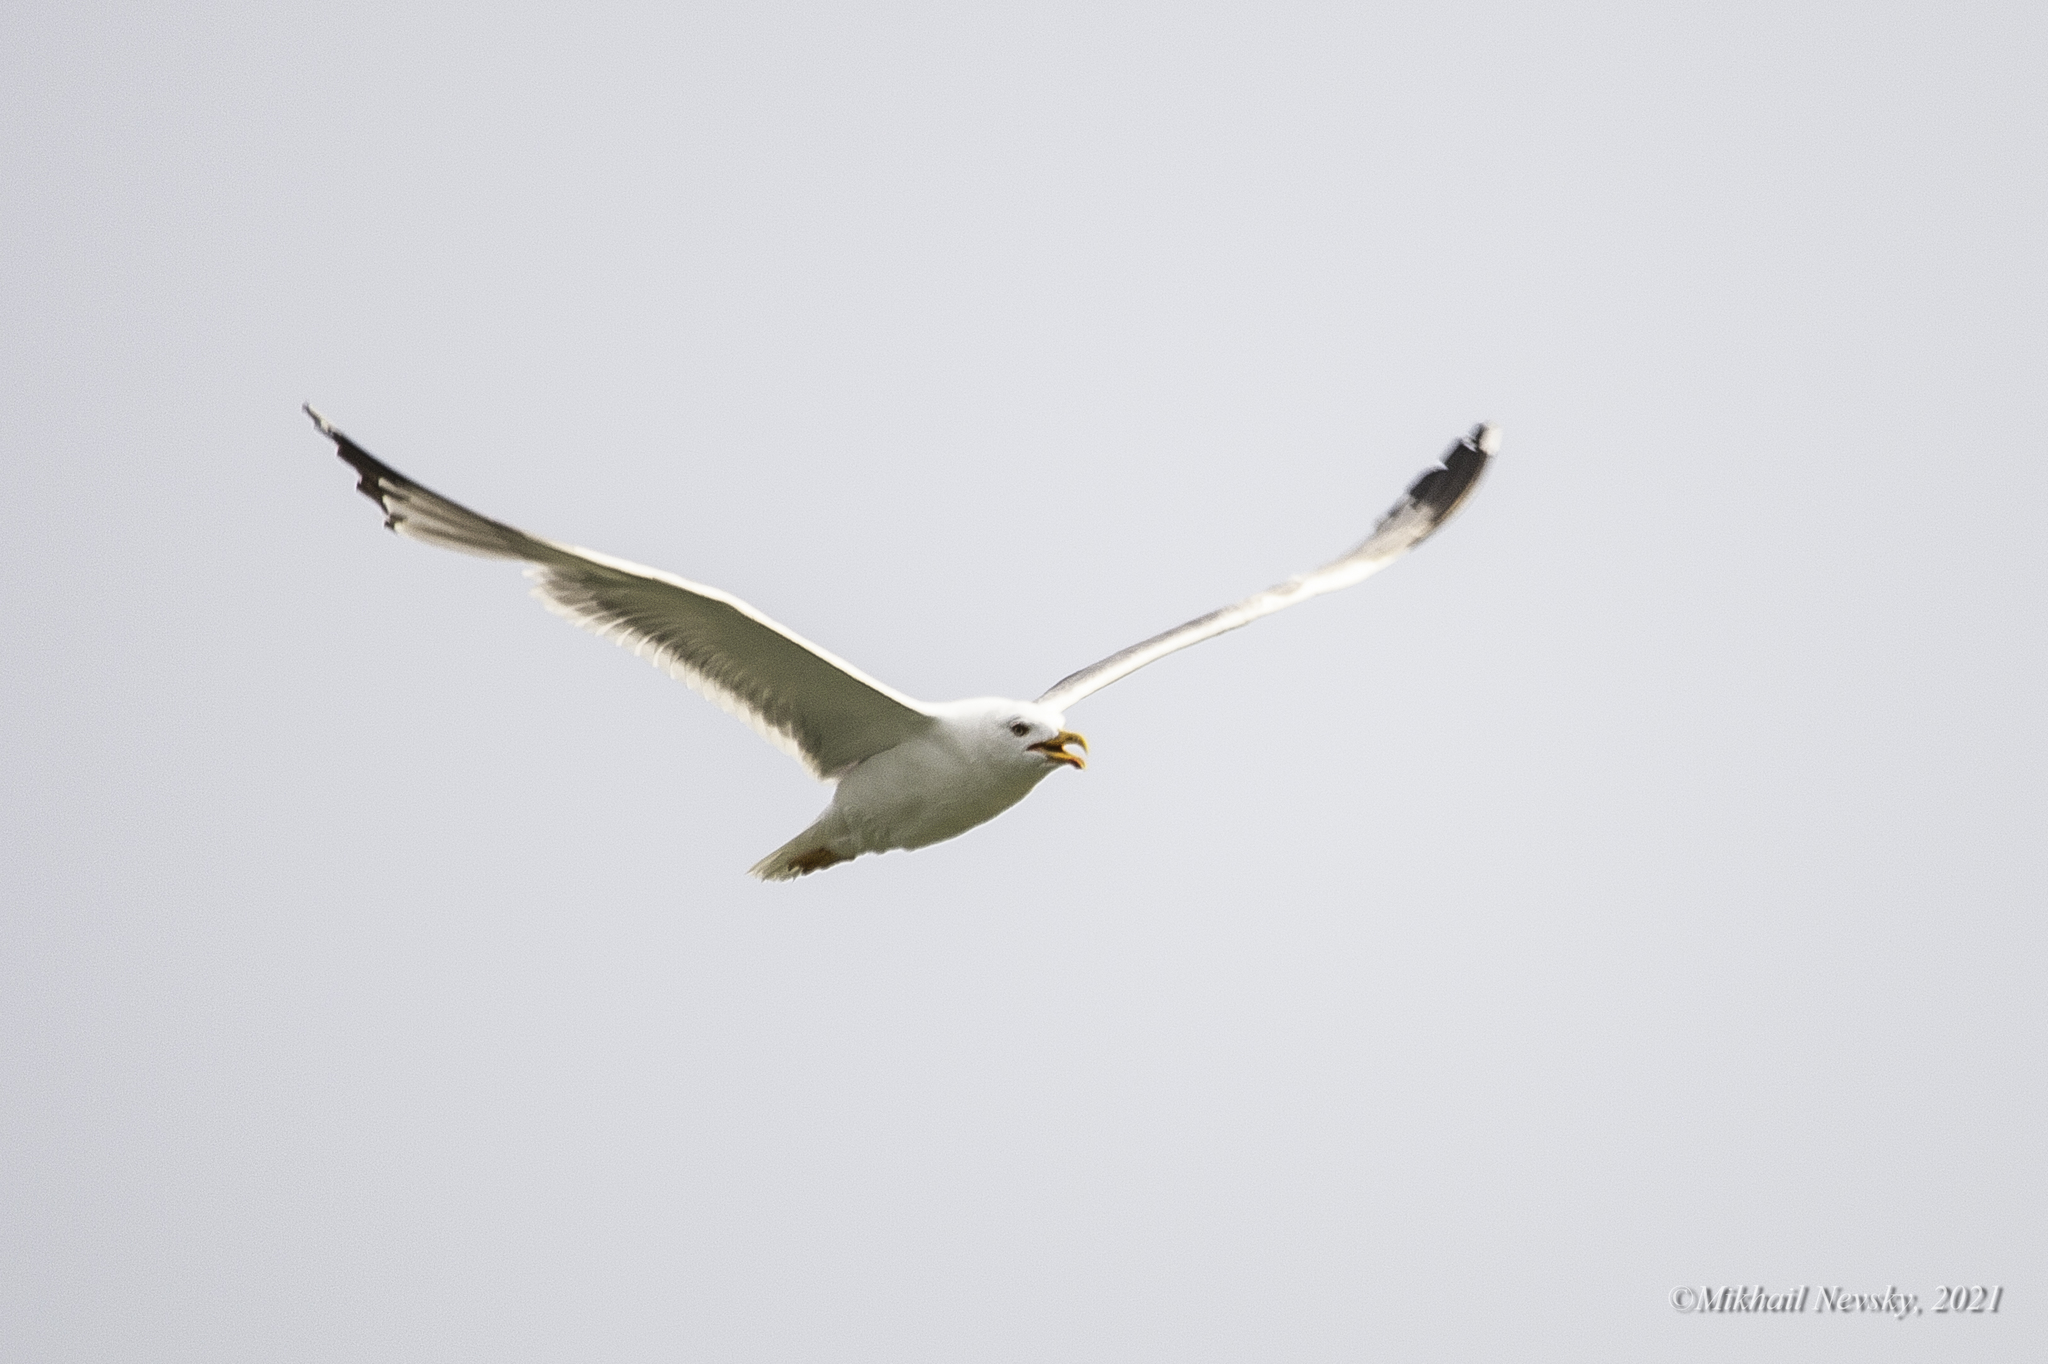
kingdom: Animalia
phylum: Chordata
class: Aves
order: Charadriiformes
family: Laridae
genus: Larus
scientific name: Larus michahellis
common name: Yellow-legged gull
